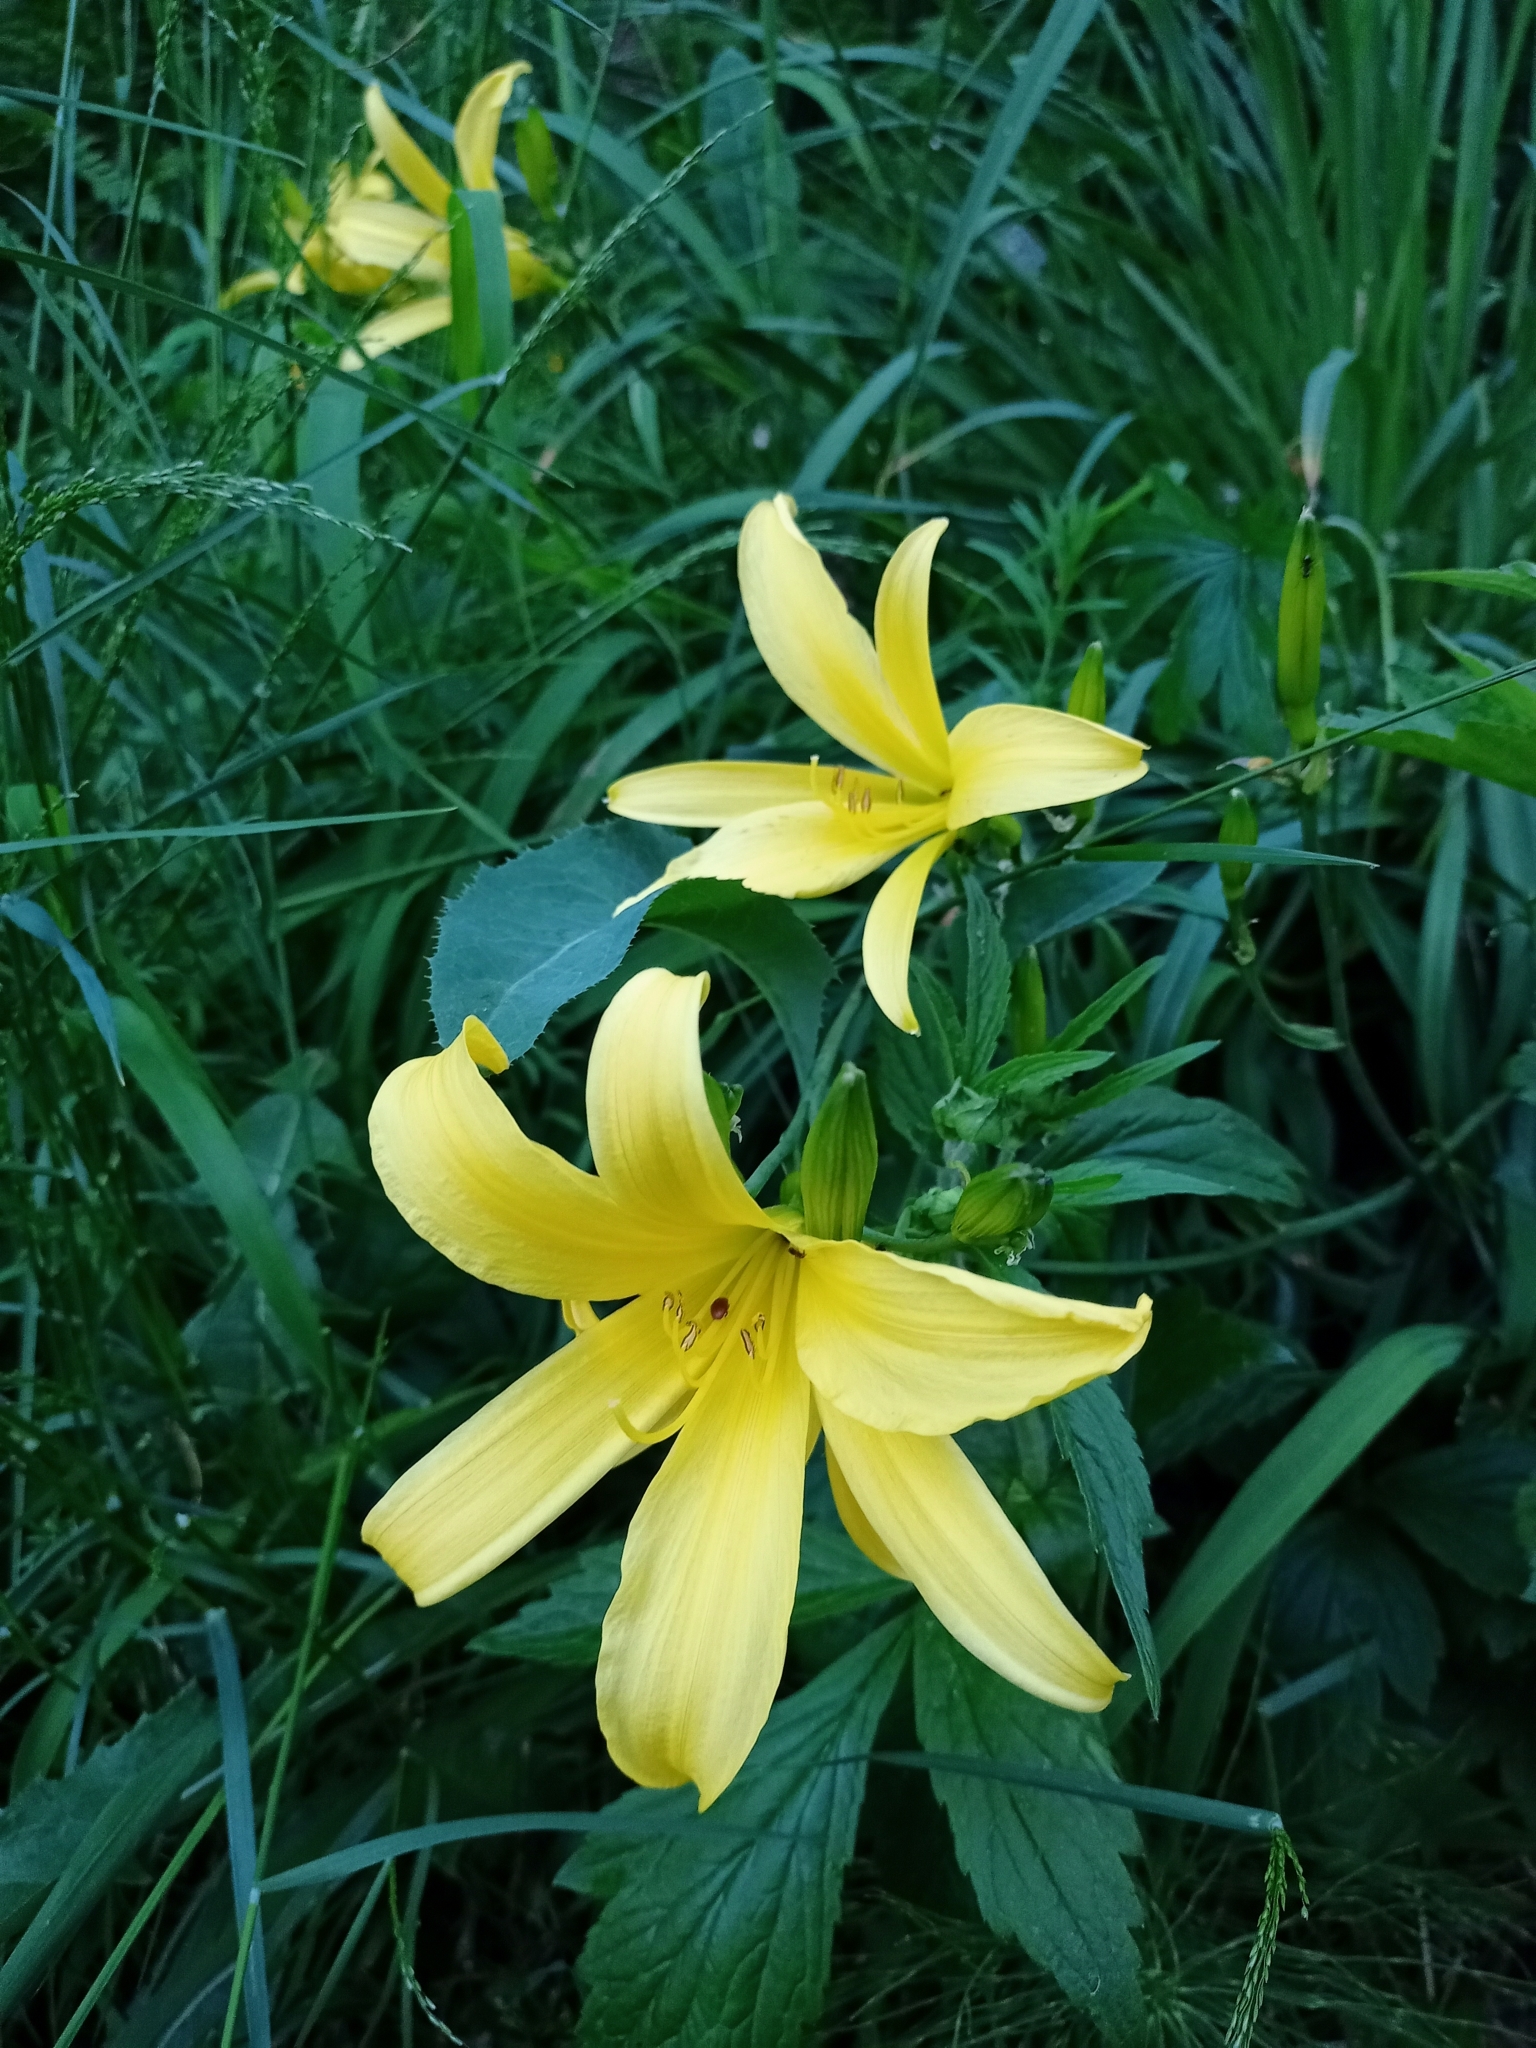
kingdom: Plantae
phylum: Tracheophyta
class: Liliopsida
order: Asparagales
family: Asphodelaceae
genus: Hemerocallis
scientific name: Hemerocallis minor
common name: Small daylily
